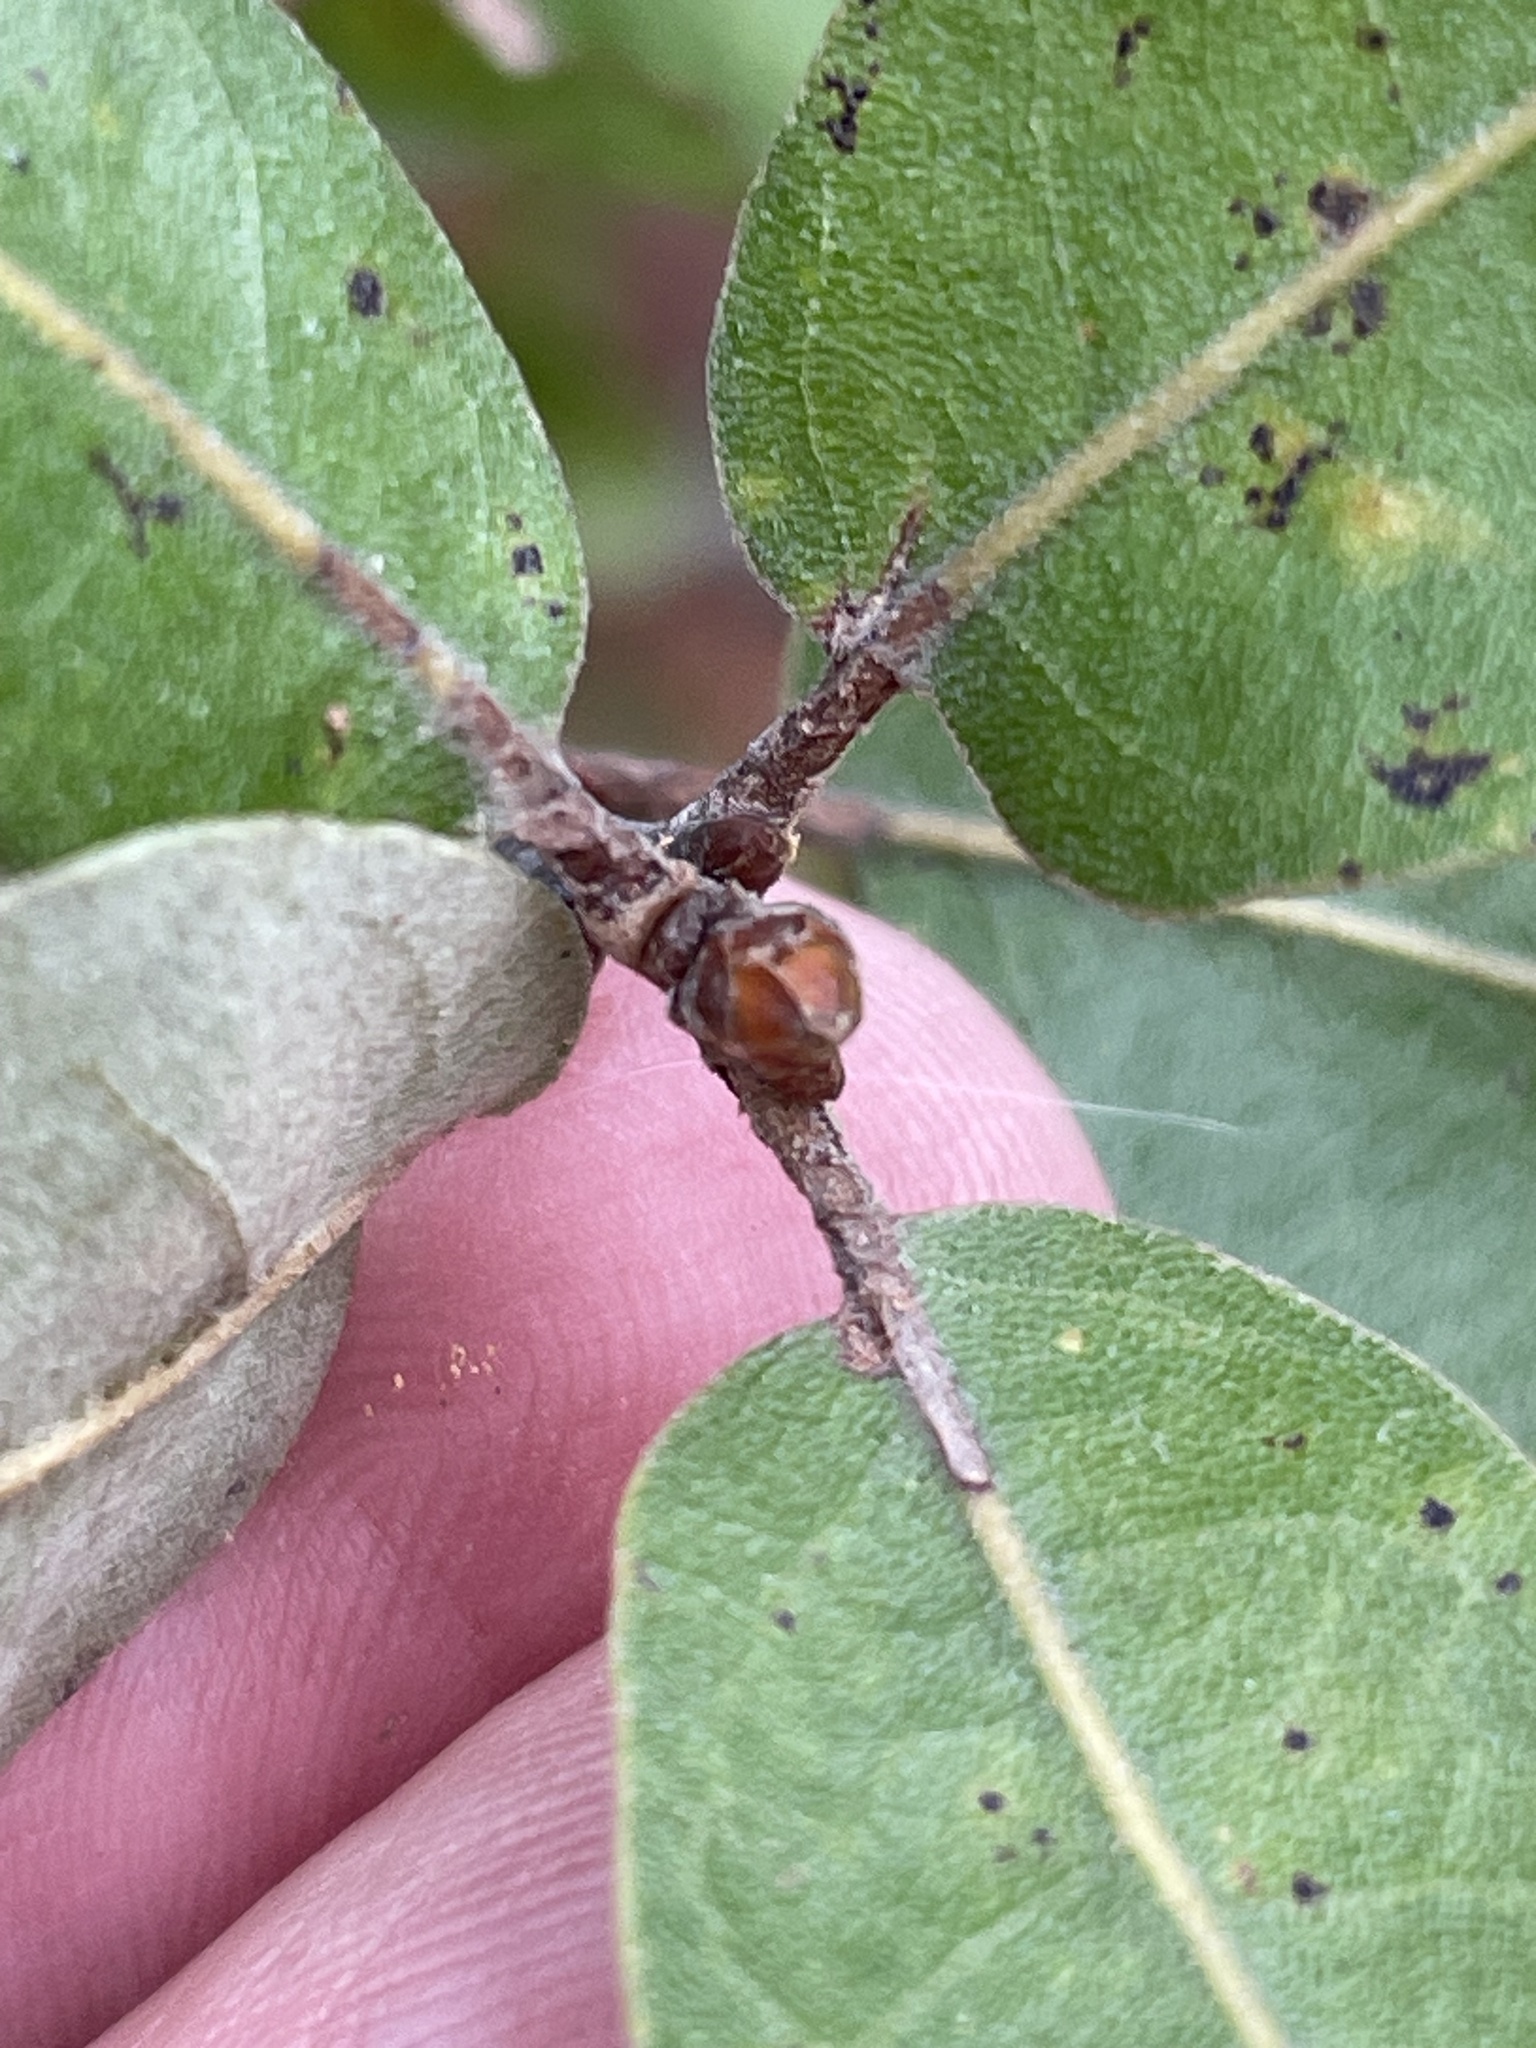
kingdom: Plantae
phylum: Tracheophyta
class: Magnoliopsida
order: Fagales
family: Fagaceae
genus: Quercus
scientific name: Quercus incana
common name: Bluejack oak
